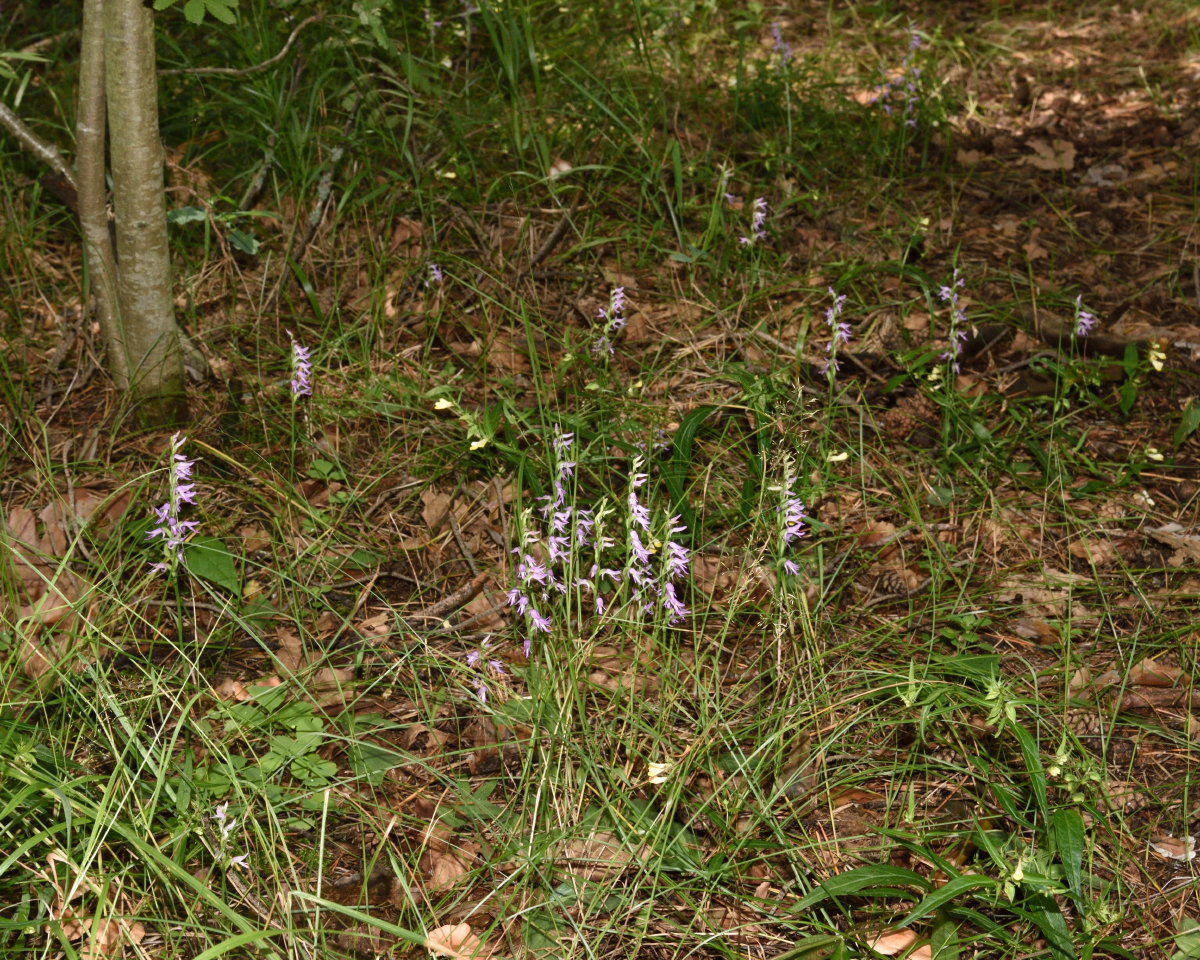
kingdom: Plantae
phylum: Tracheophyta
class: Liliopsida
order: Asparagales
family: Orchidaceae
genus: Hemipilia
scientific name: Hemipilia cucullata
